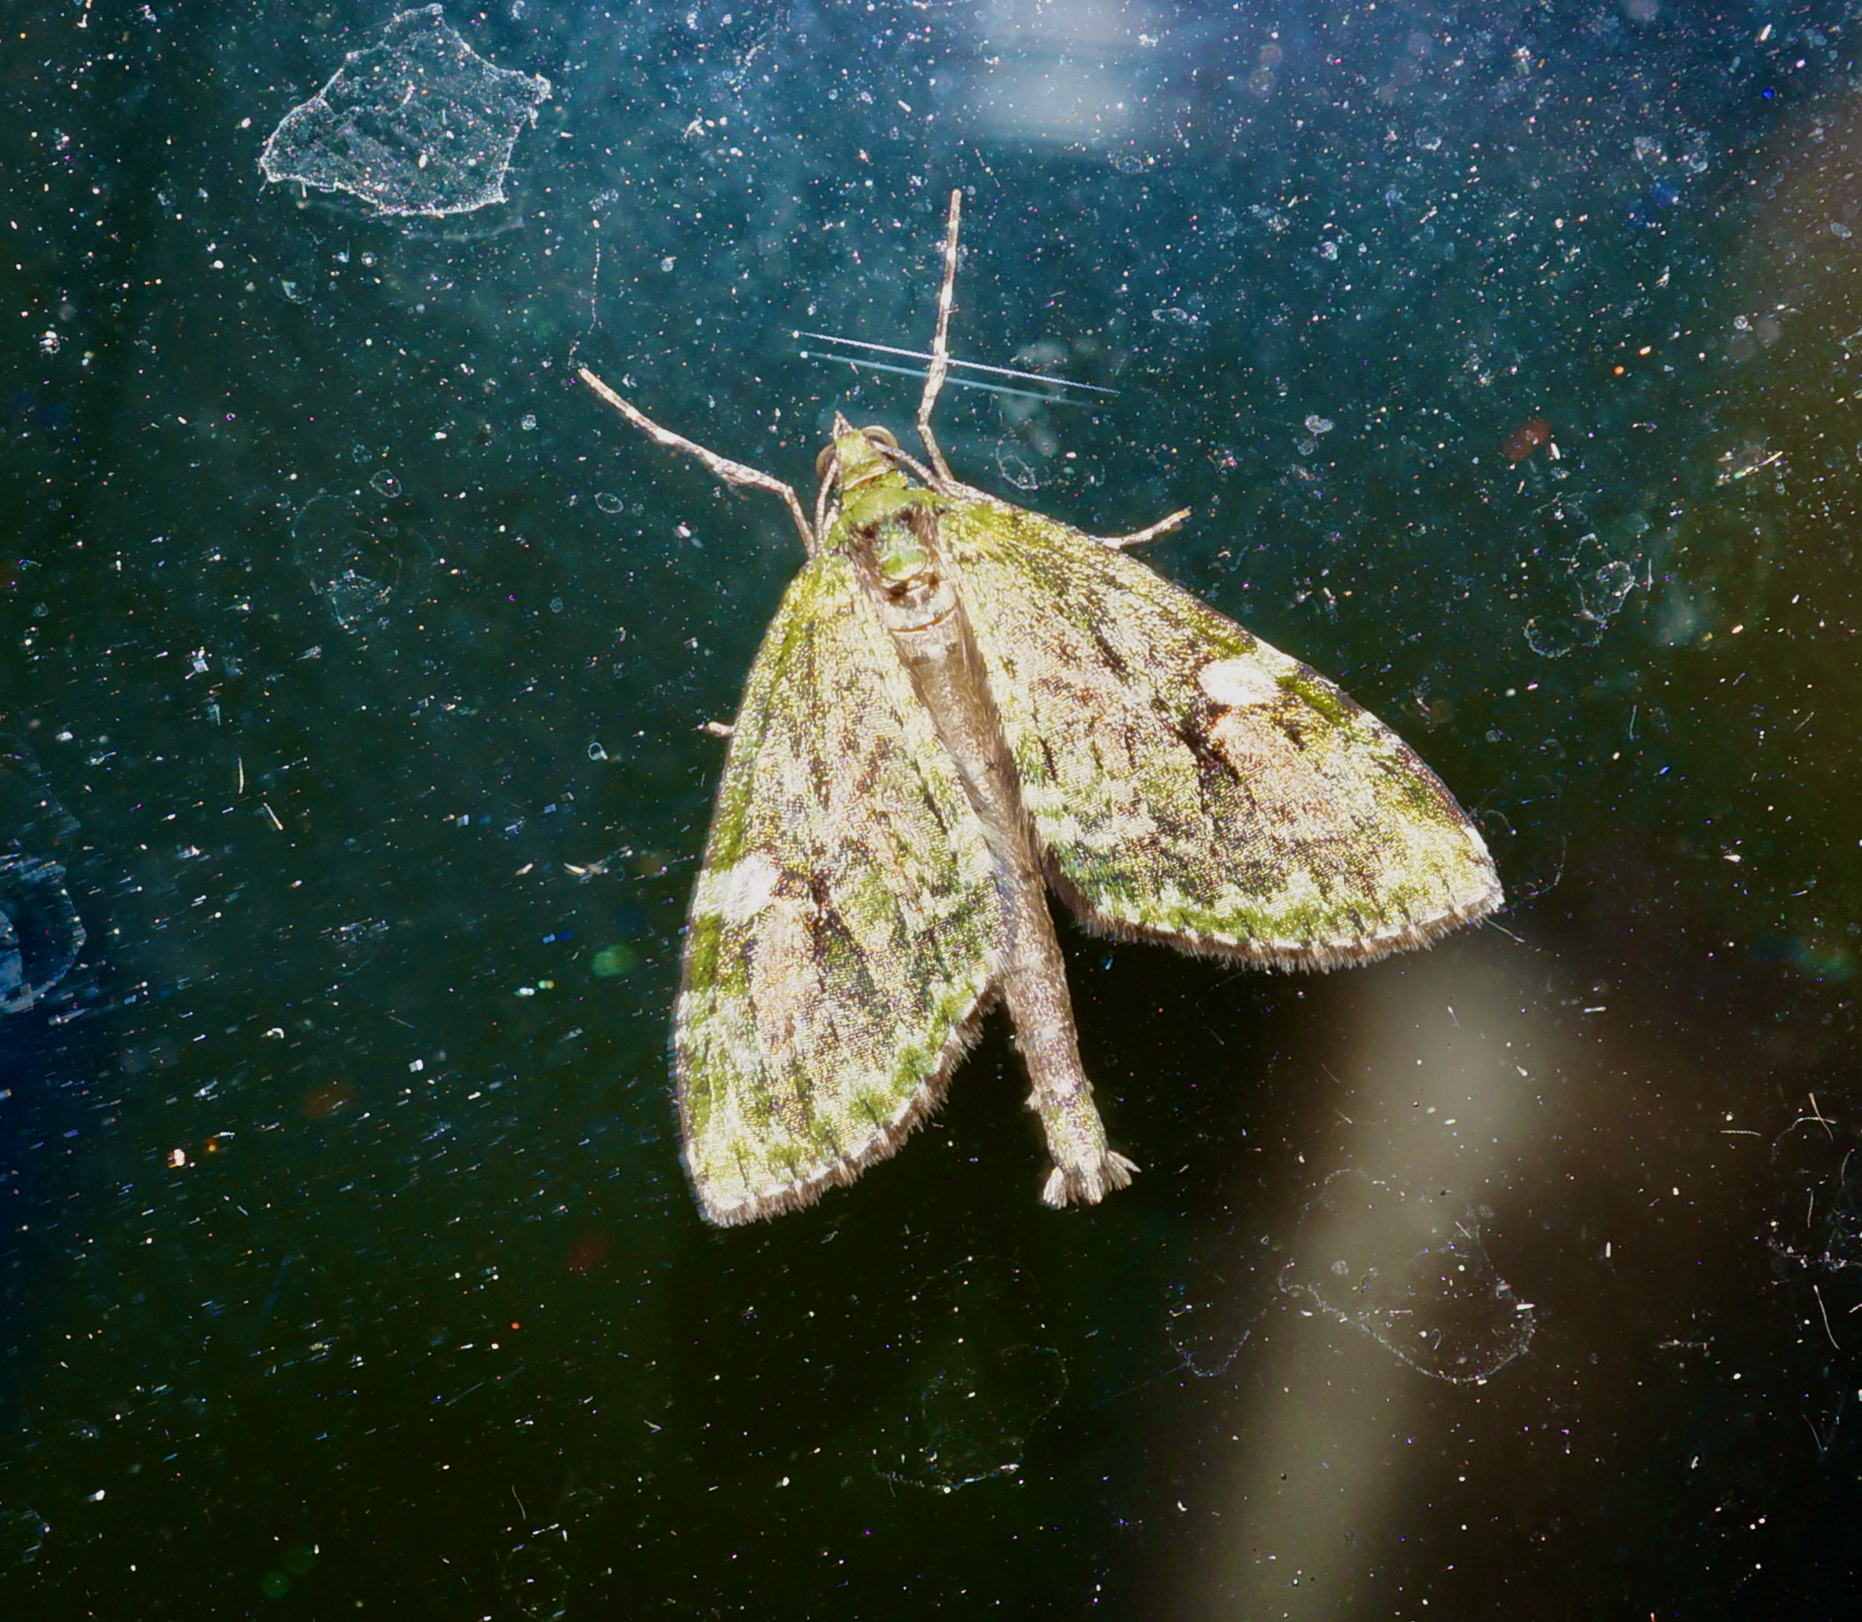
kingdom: Animalia
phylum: Arthropoda
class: Insecta
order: Lepidoptera
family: Geometridae
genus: Tatosoma
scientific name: Tatosoma topea
